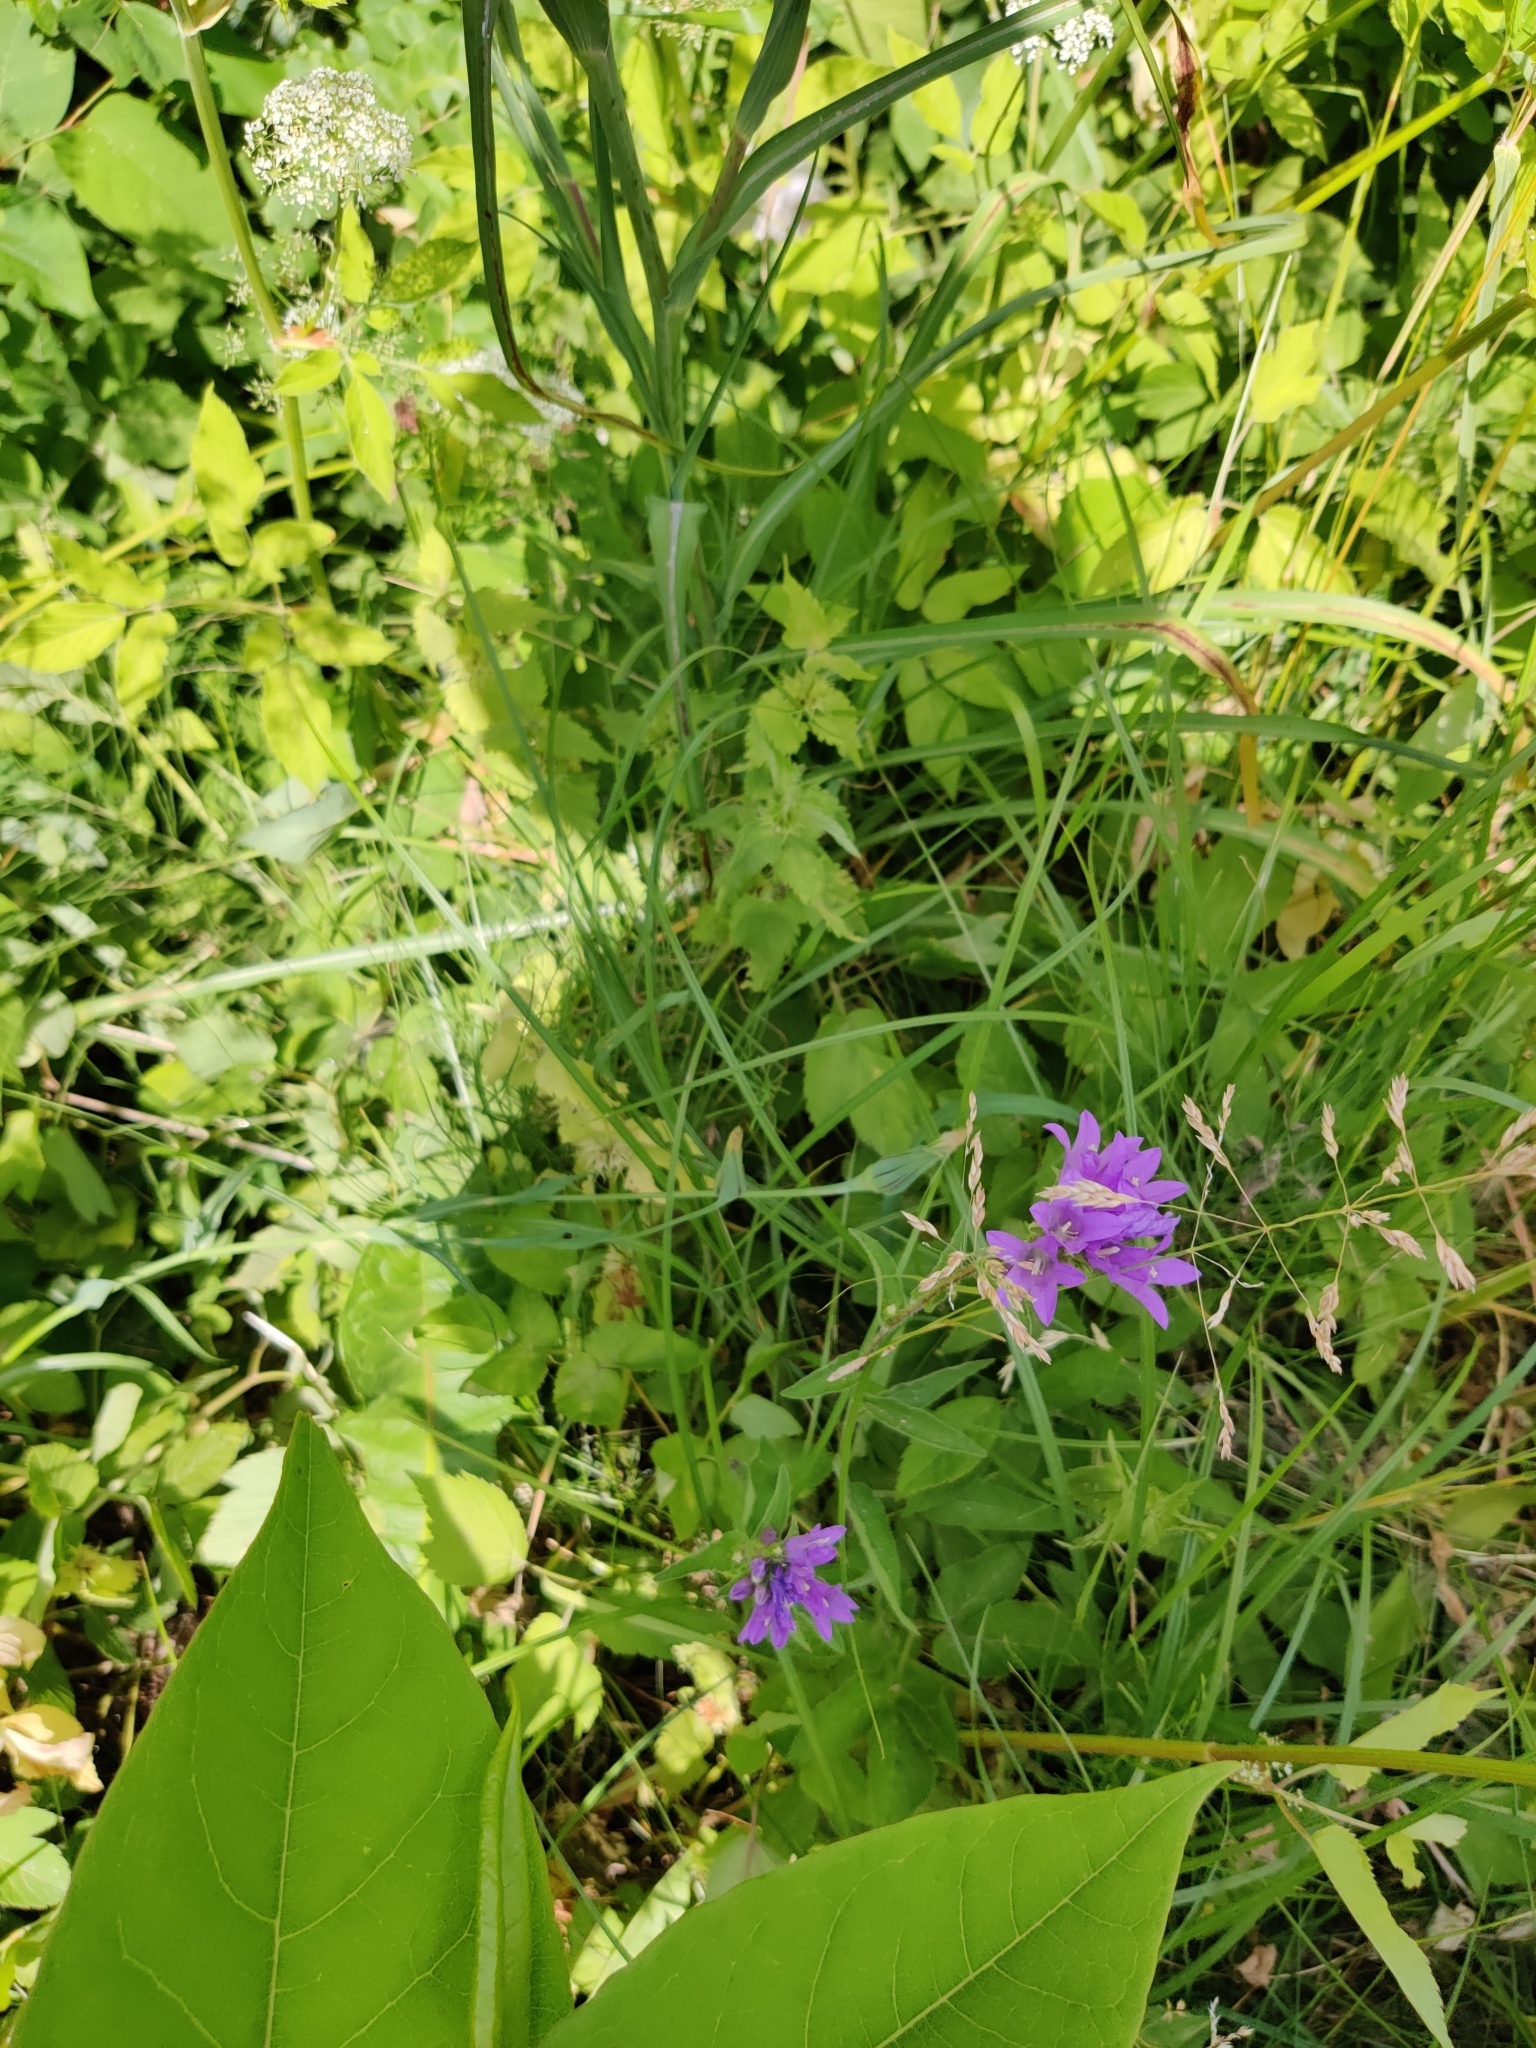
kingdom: Plantae
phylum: Tracheophyta
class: Magnoliopsida
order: Asterales
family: Campanulaceae
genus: Campanula
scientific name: Campanula glomerata
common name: Clustered bellflower
